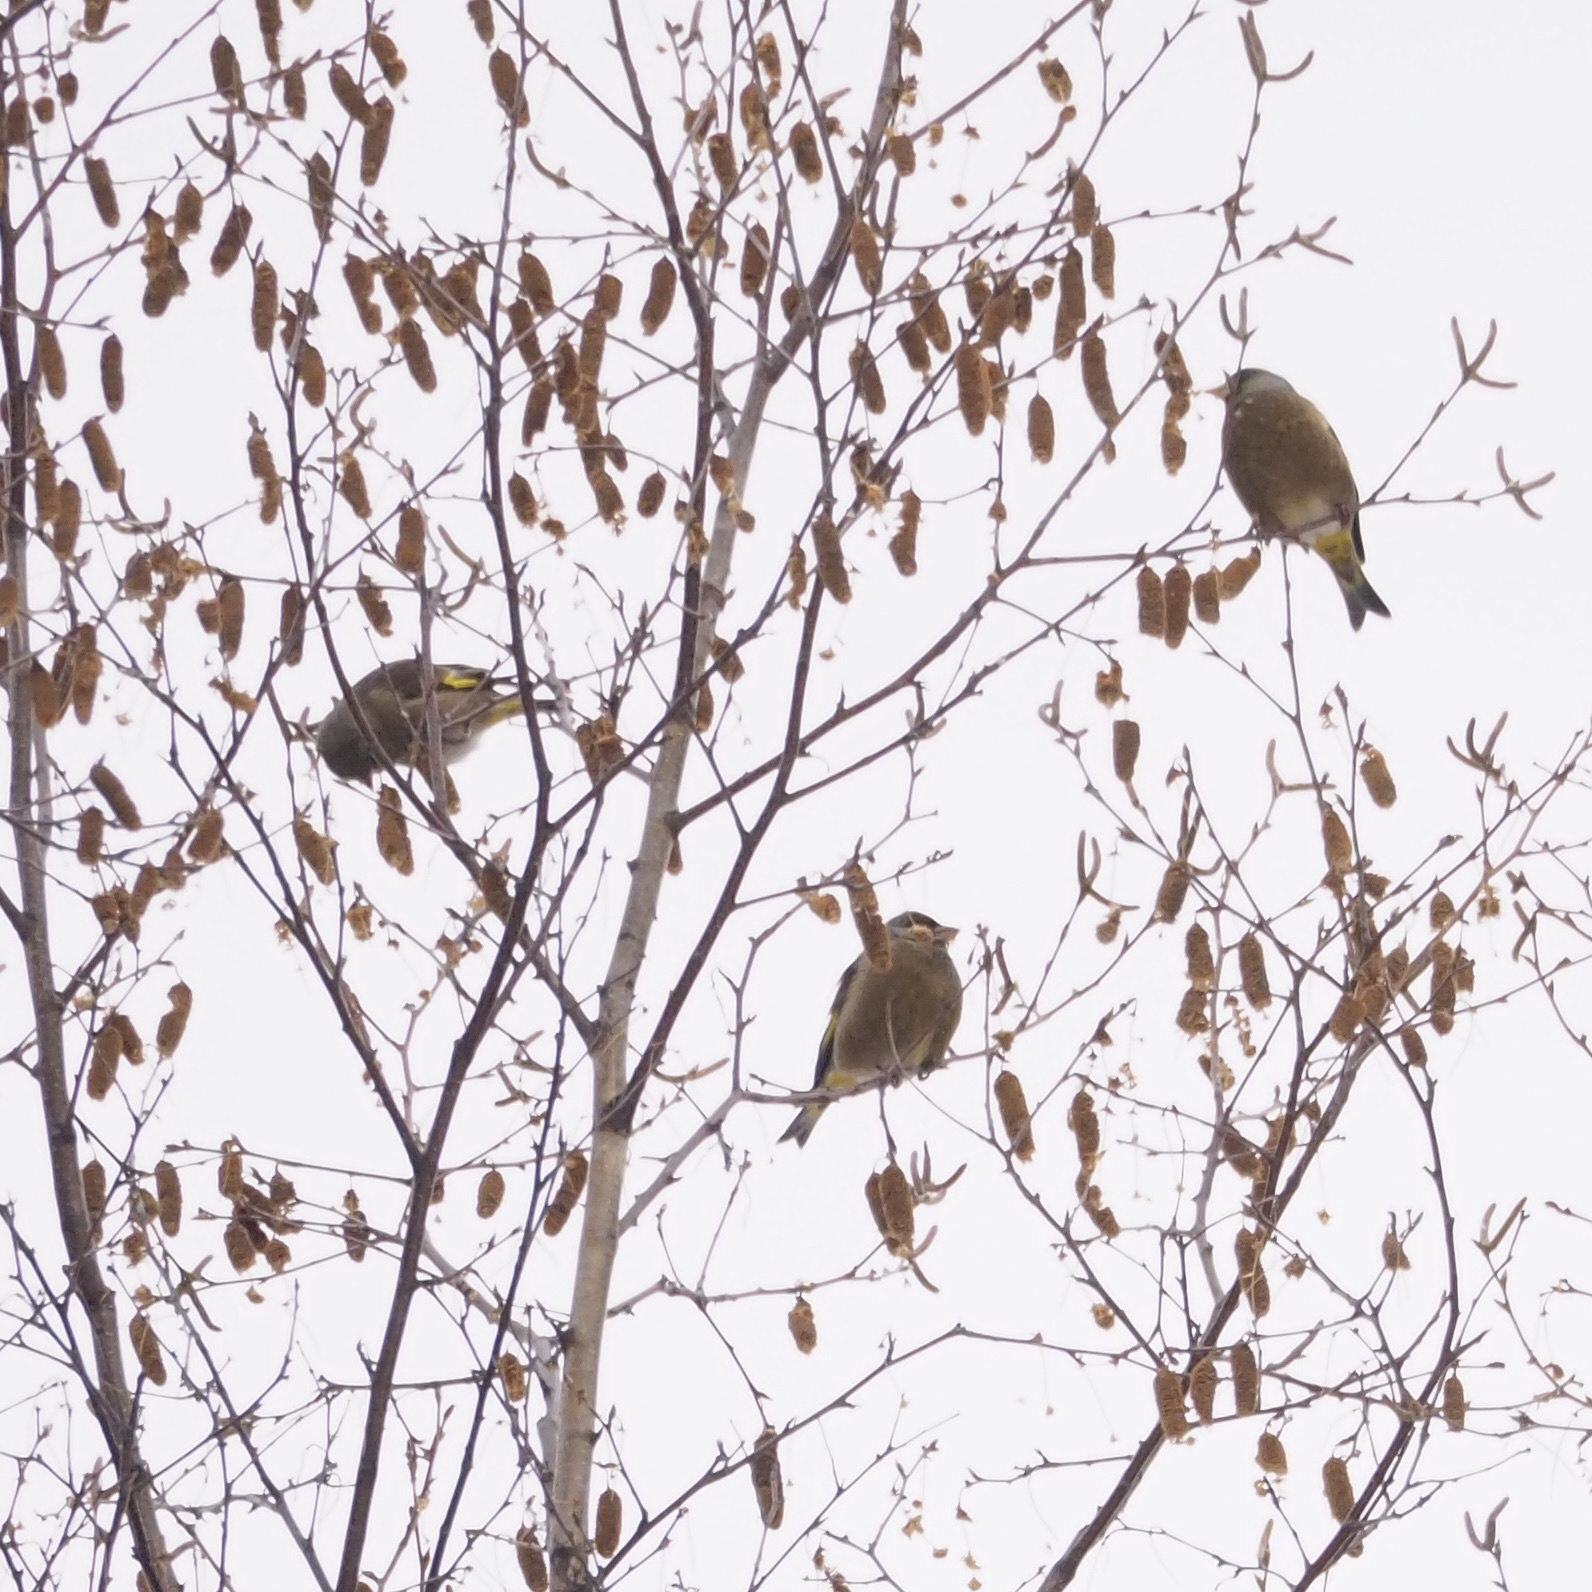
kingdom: Plantae
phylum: Tracheophyta
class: Liliopsida
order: Poales
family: Poaceae
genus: Chloris
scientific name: Chloris sinica
